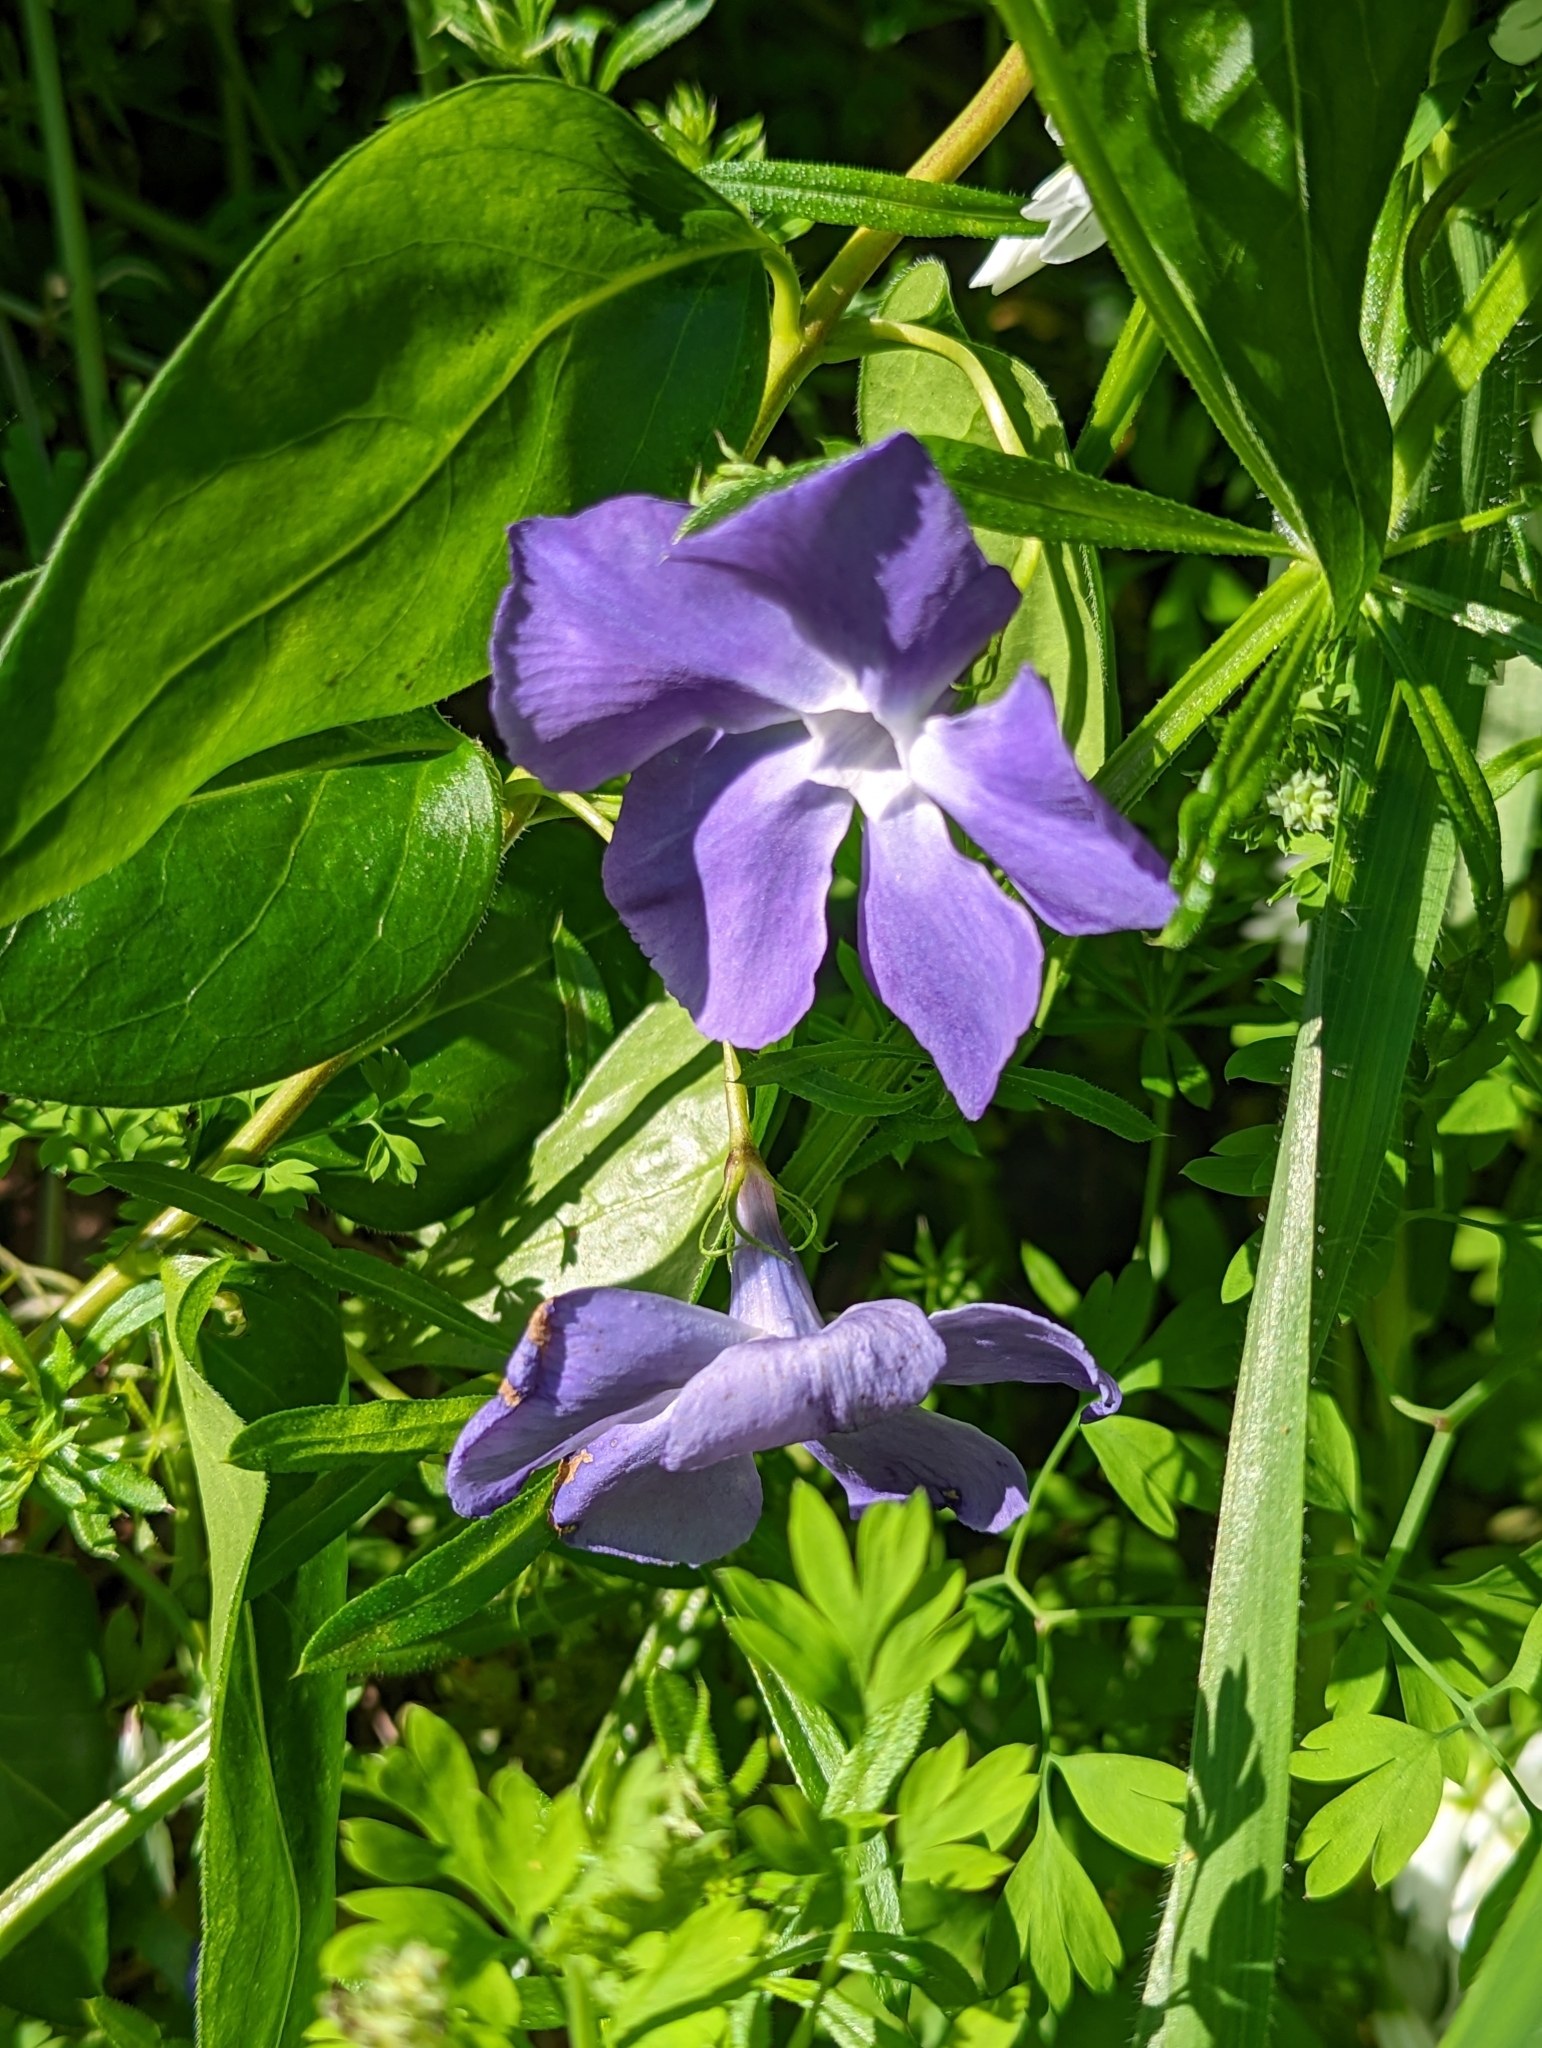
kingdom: Plantae
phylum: Tracheophyta
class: Magnoliopsida
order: Gentianales
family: Apocynaceae
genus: Vinca
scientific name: Vinca major
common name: Greater periwinkle
